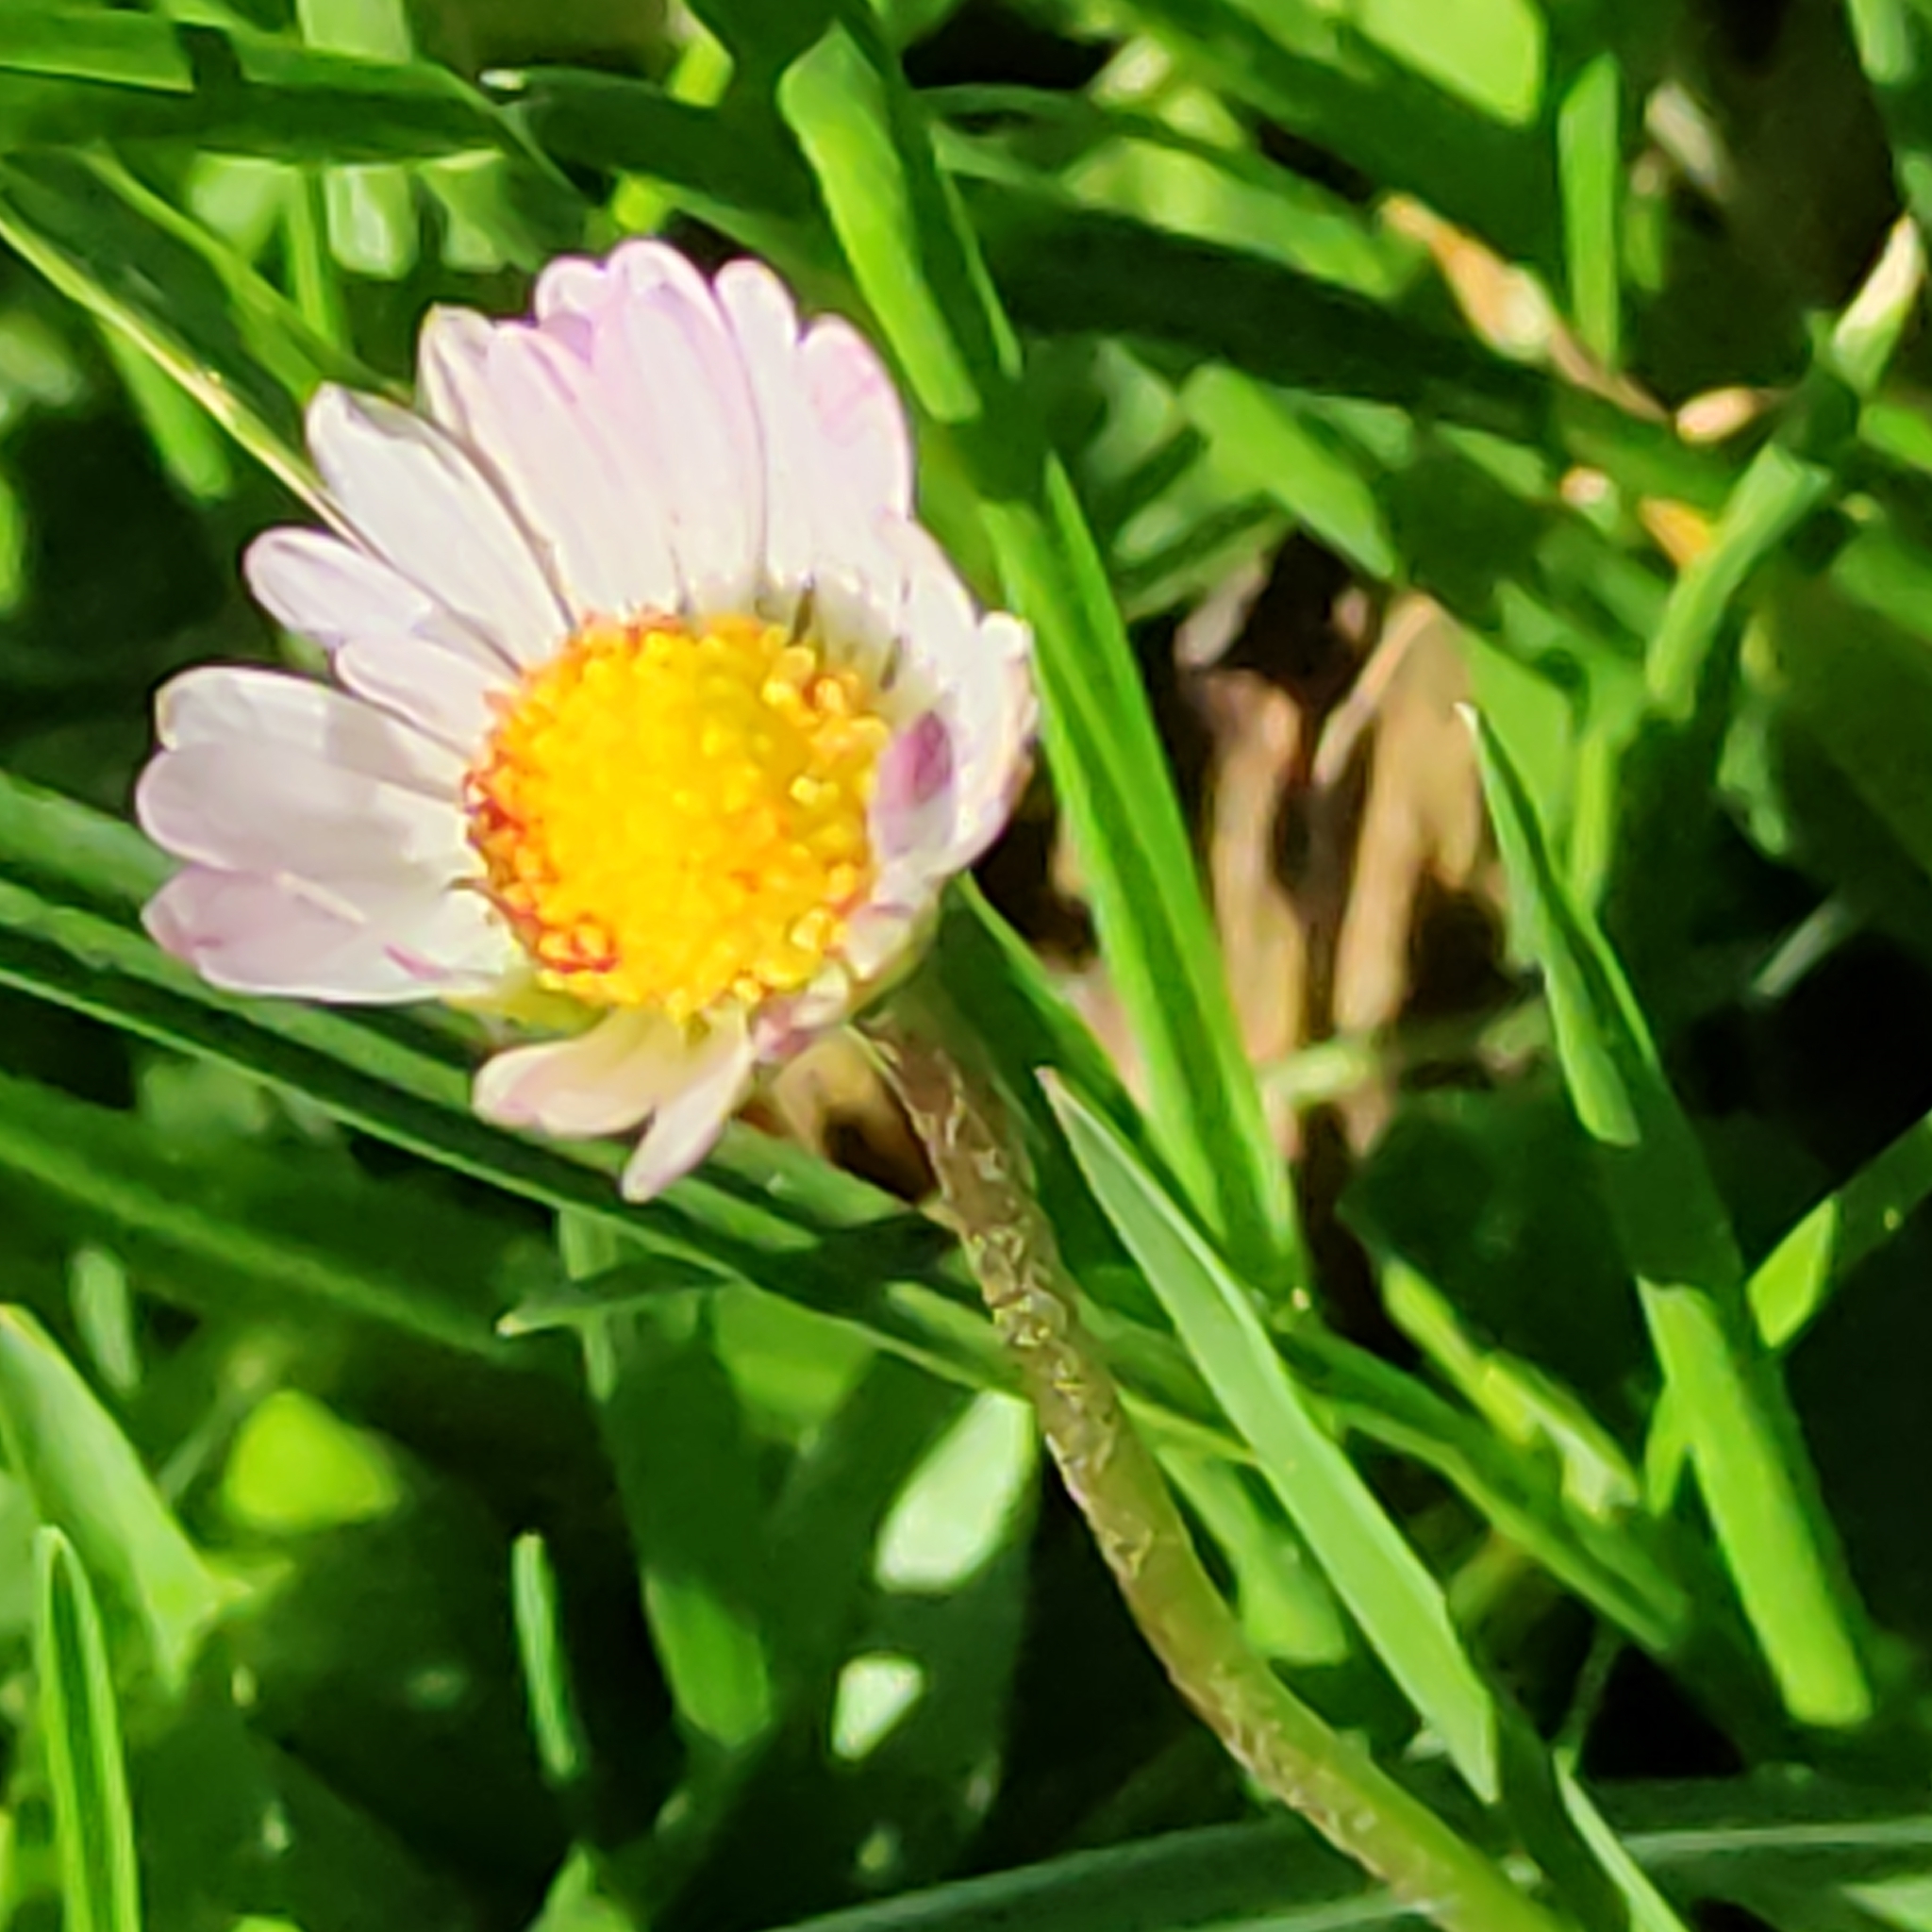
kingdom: Plantae
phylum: Tracheophyta
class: Magnoliopsida
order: Asterales
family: Asteraceae
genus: Bellis
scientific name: Bellis perennis
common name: Lawndaisy
